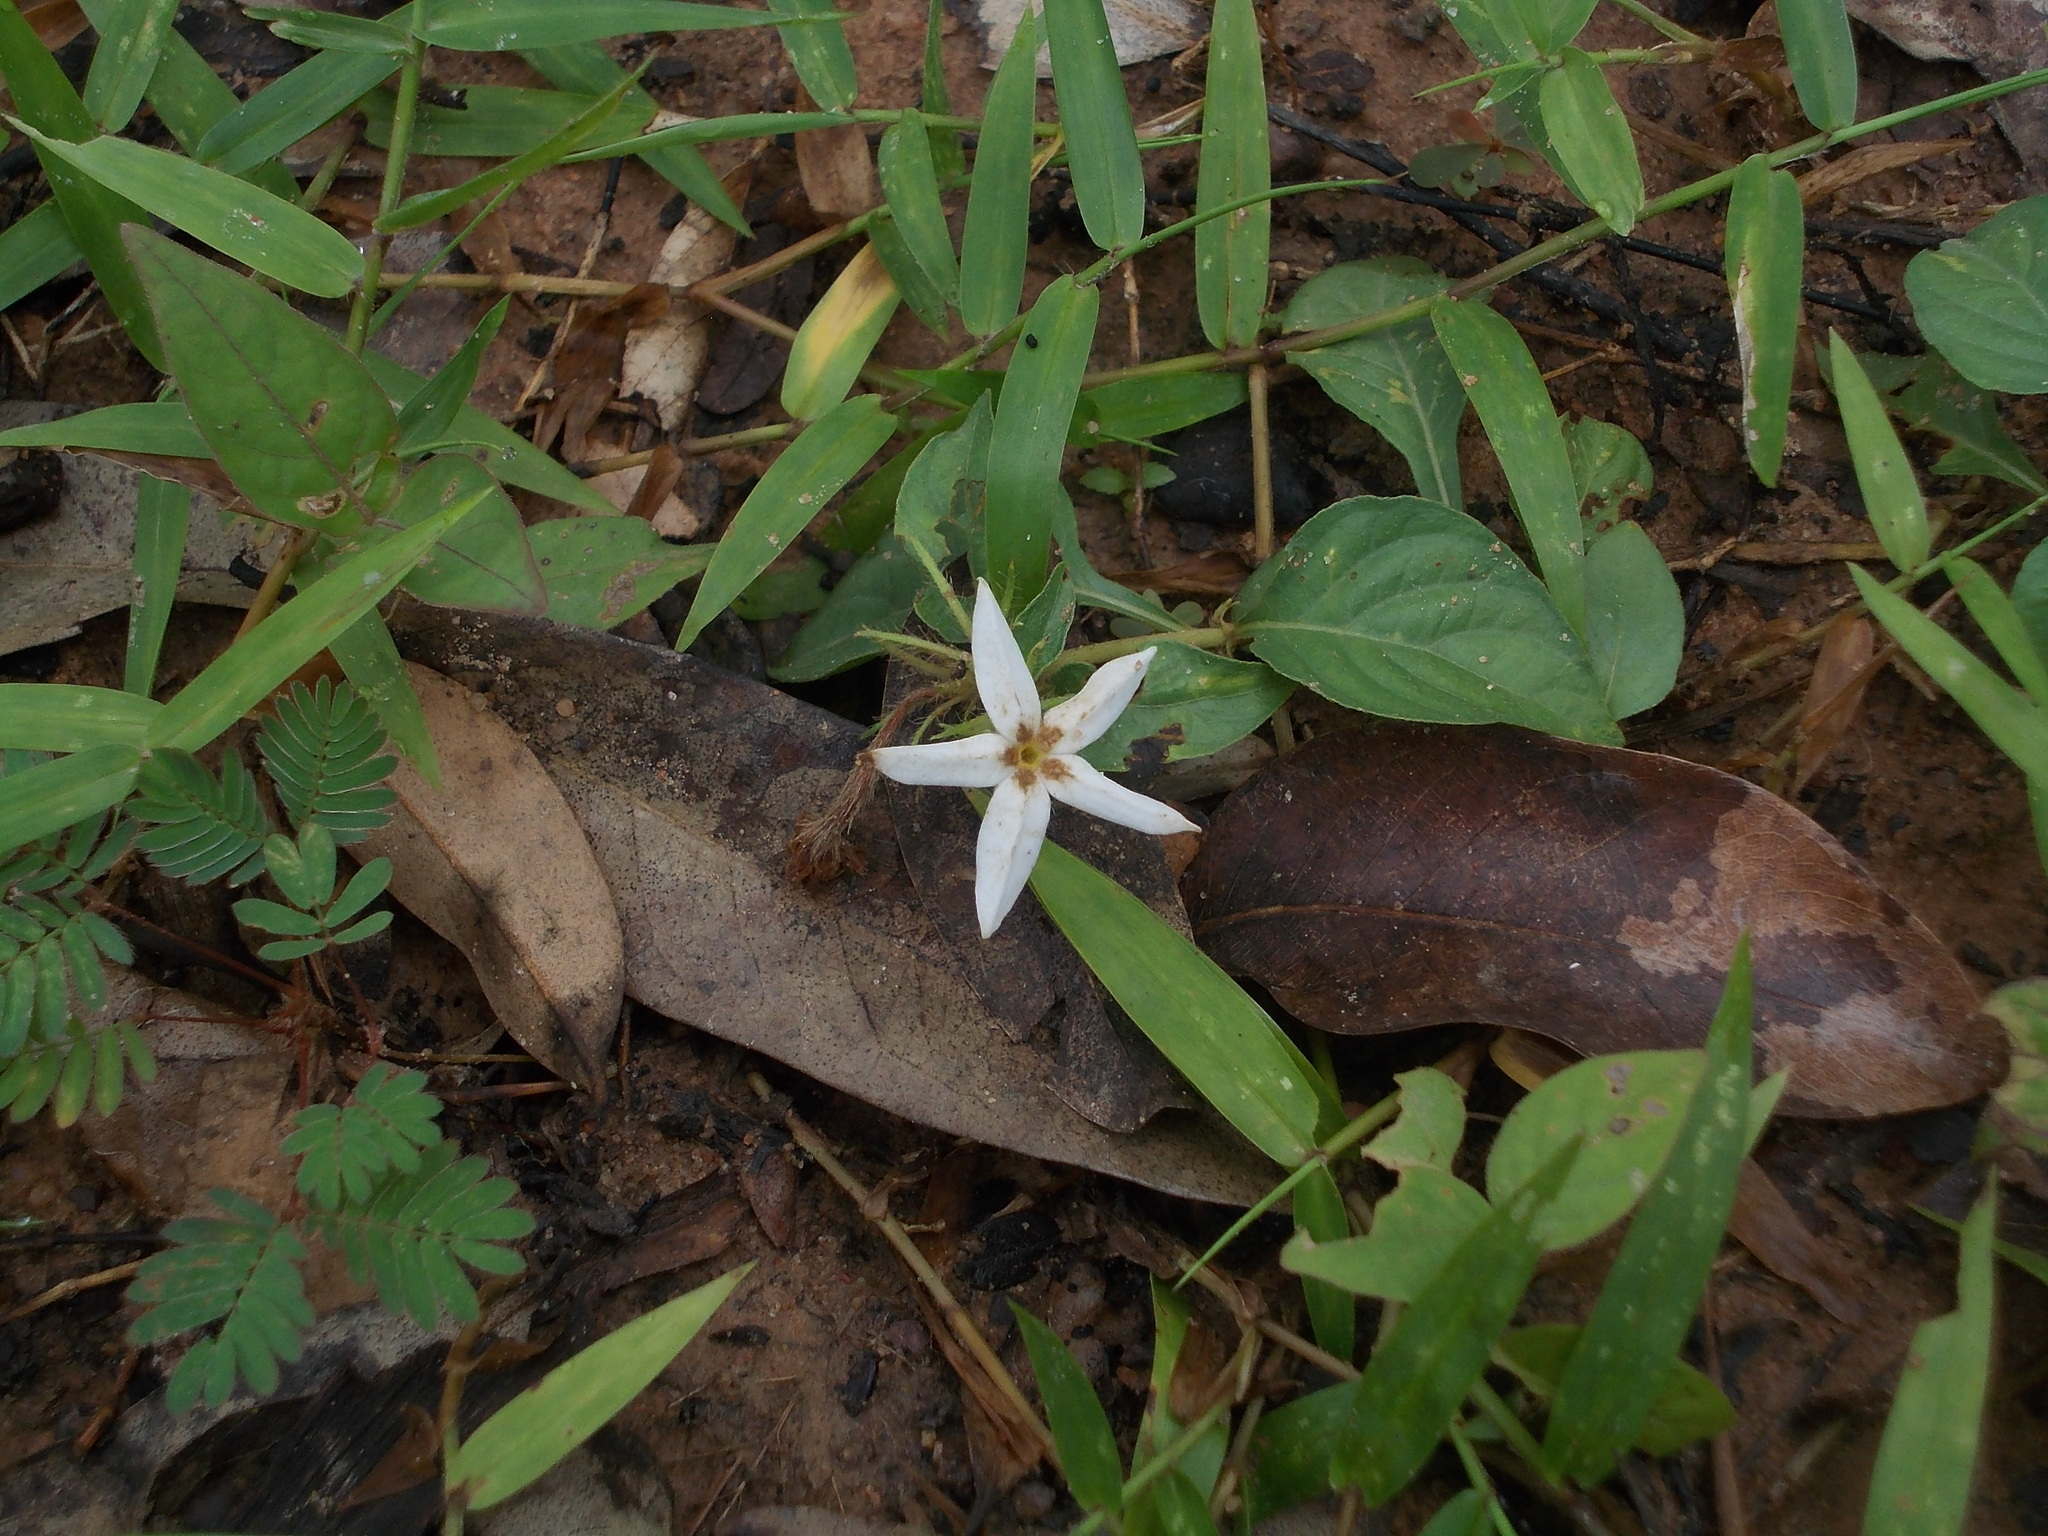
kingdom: Plantae
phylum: Tracheophyta
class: Magnoliopsida
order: Lamiales
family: Oleaceae
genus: Jasminum
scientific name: Jasminum scandens
